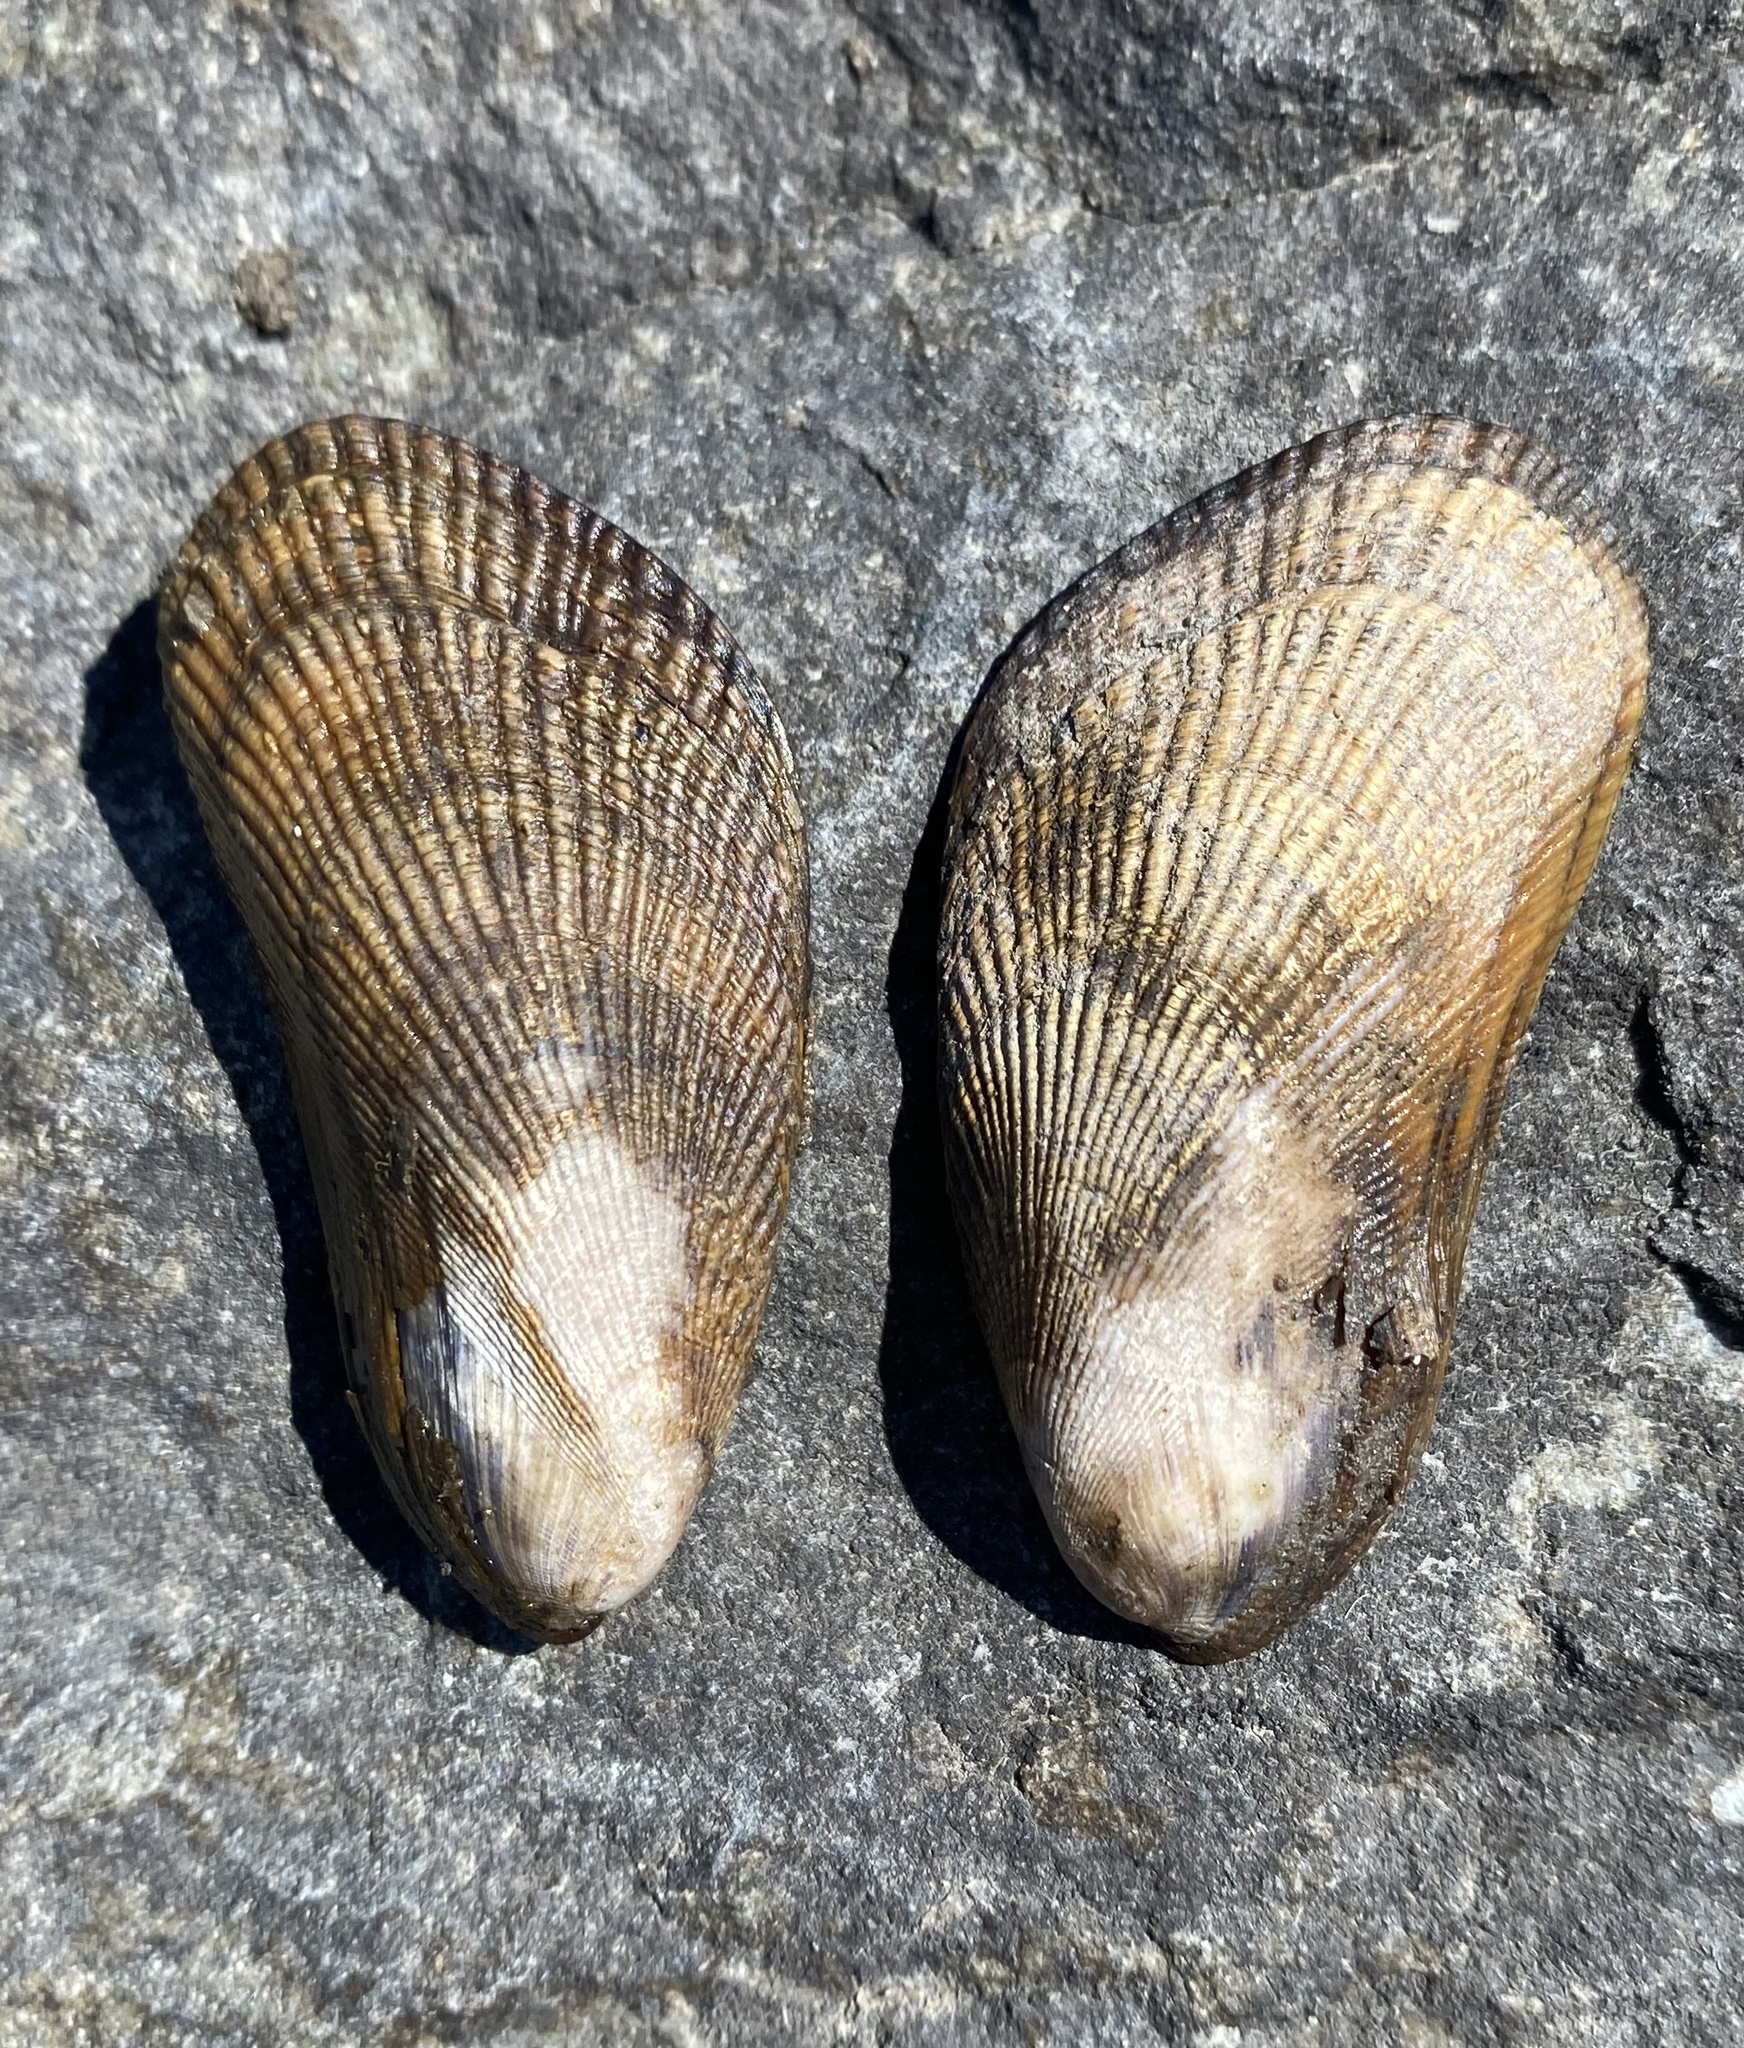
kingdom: Animalia
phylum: Mollusca
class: Bivalvia
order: Mytilida
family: Mytilidae
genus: Geukensia
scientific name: Geukensia demissa
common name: Ribbed mussel
